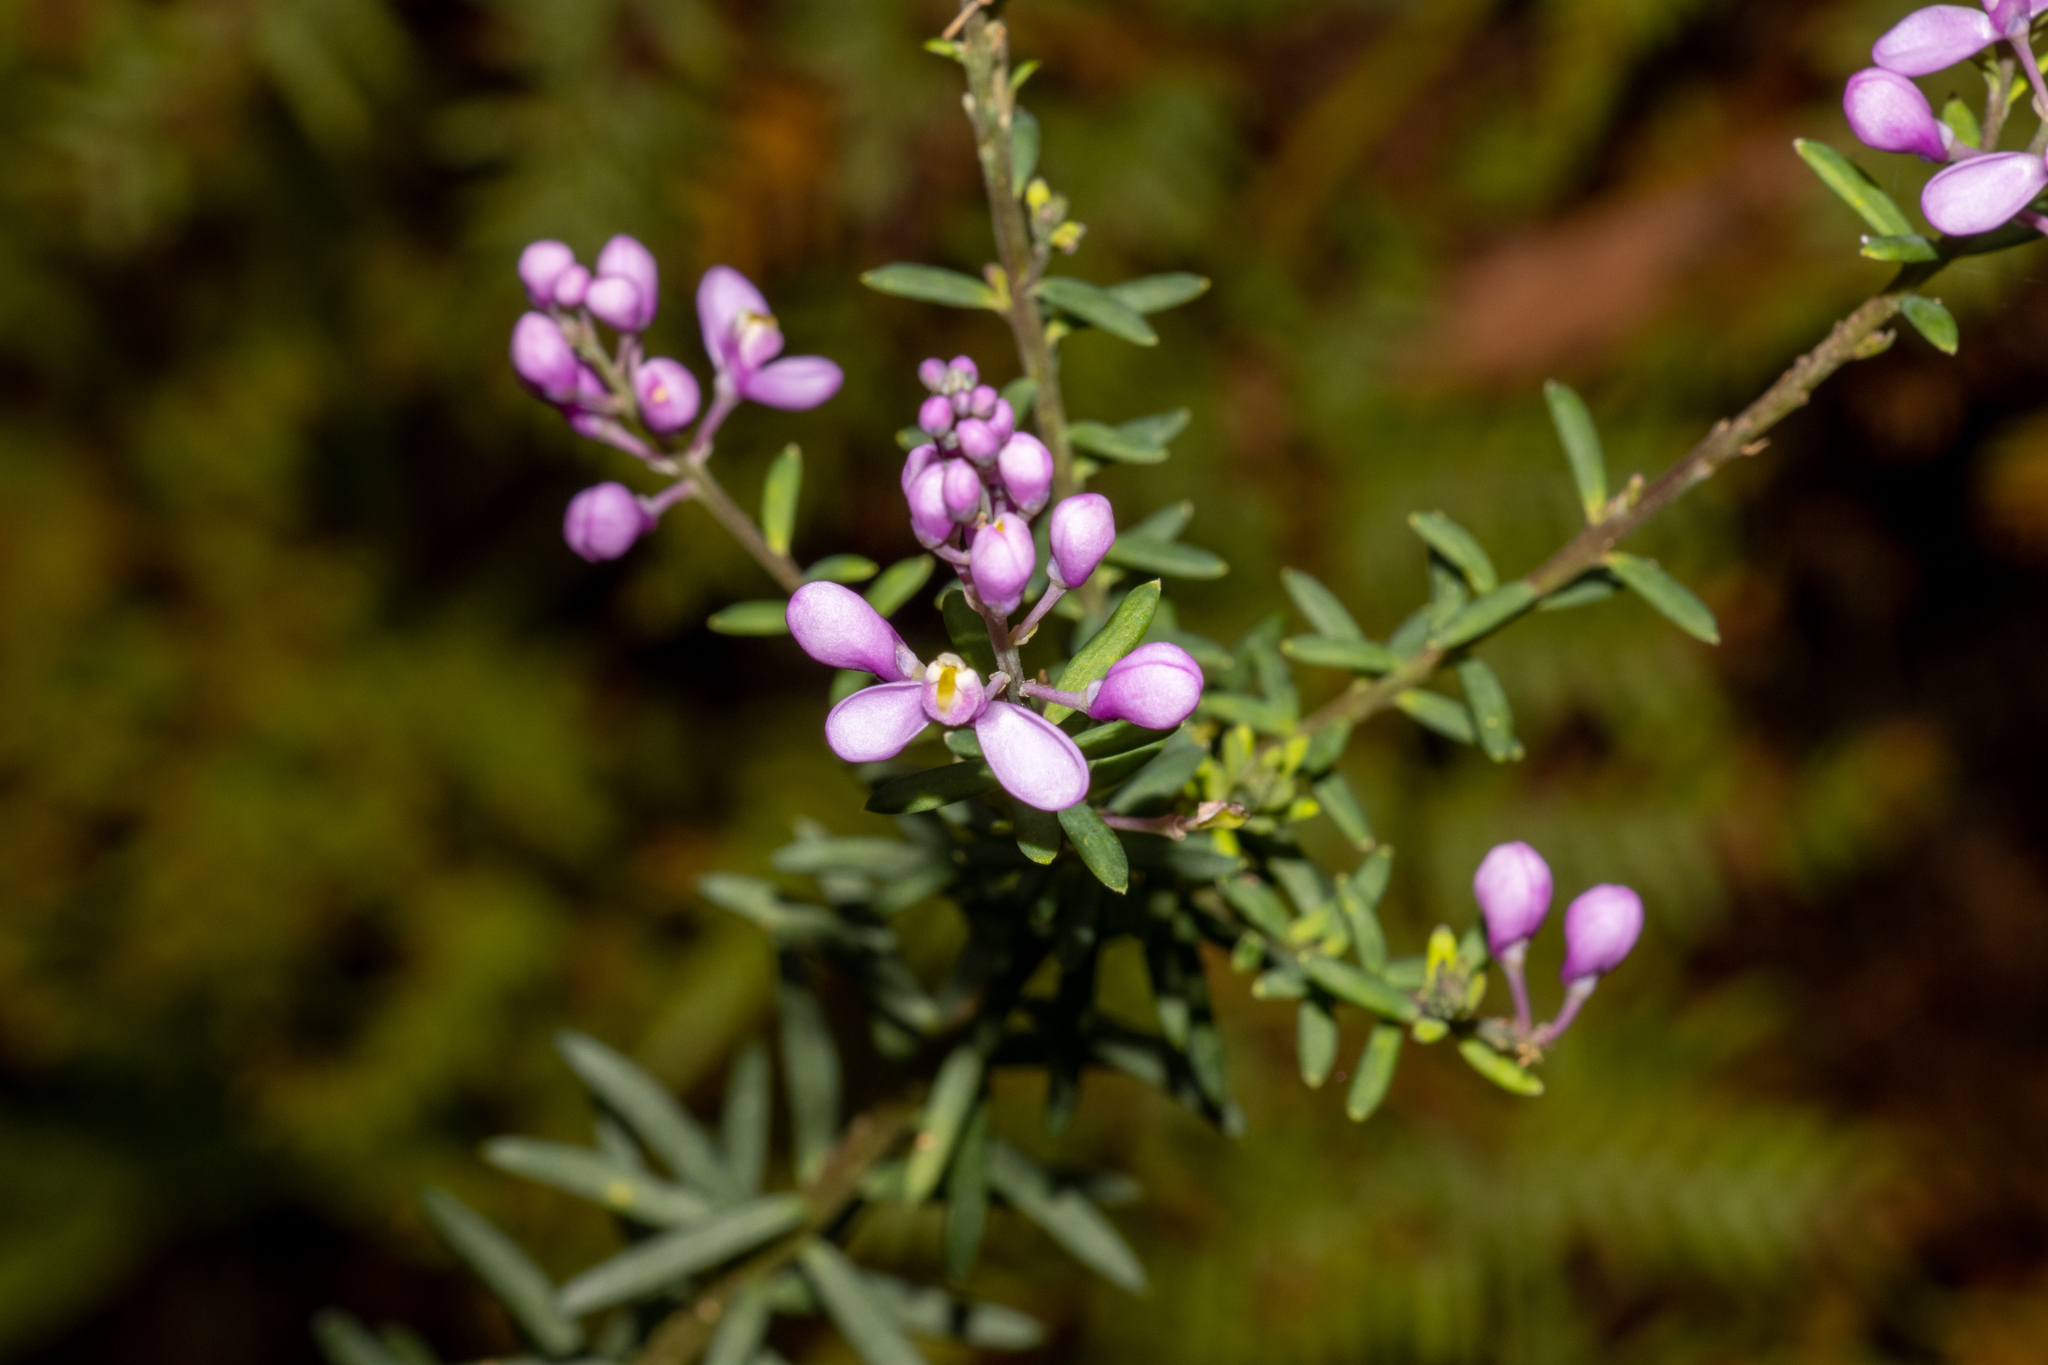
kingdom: Plantae
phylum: Tracheophyta
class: Magnoliopsida
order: Fabales
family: Polygalaceae
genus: Comesperma
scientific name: Comesperma ericinum
